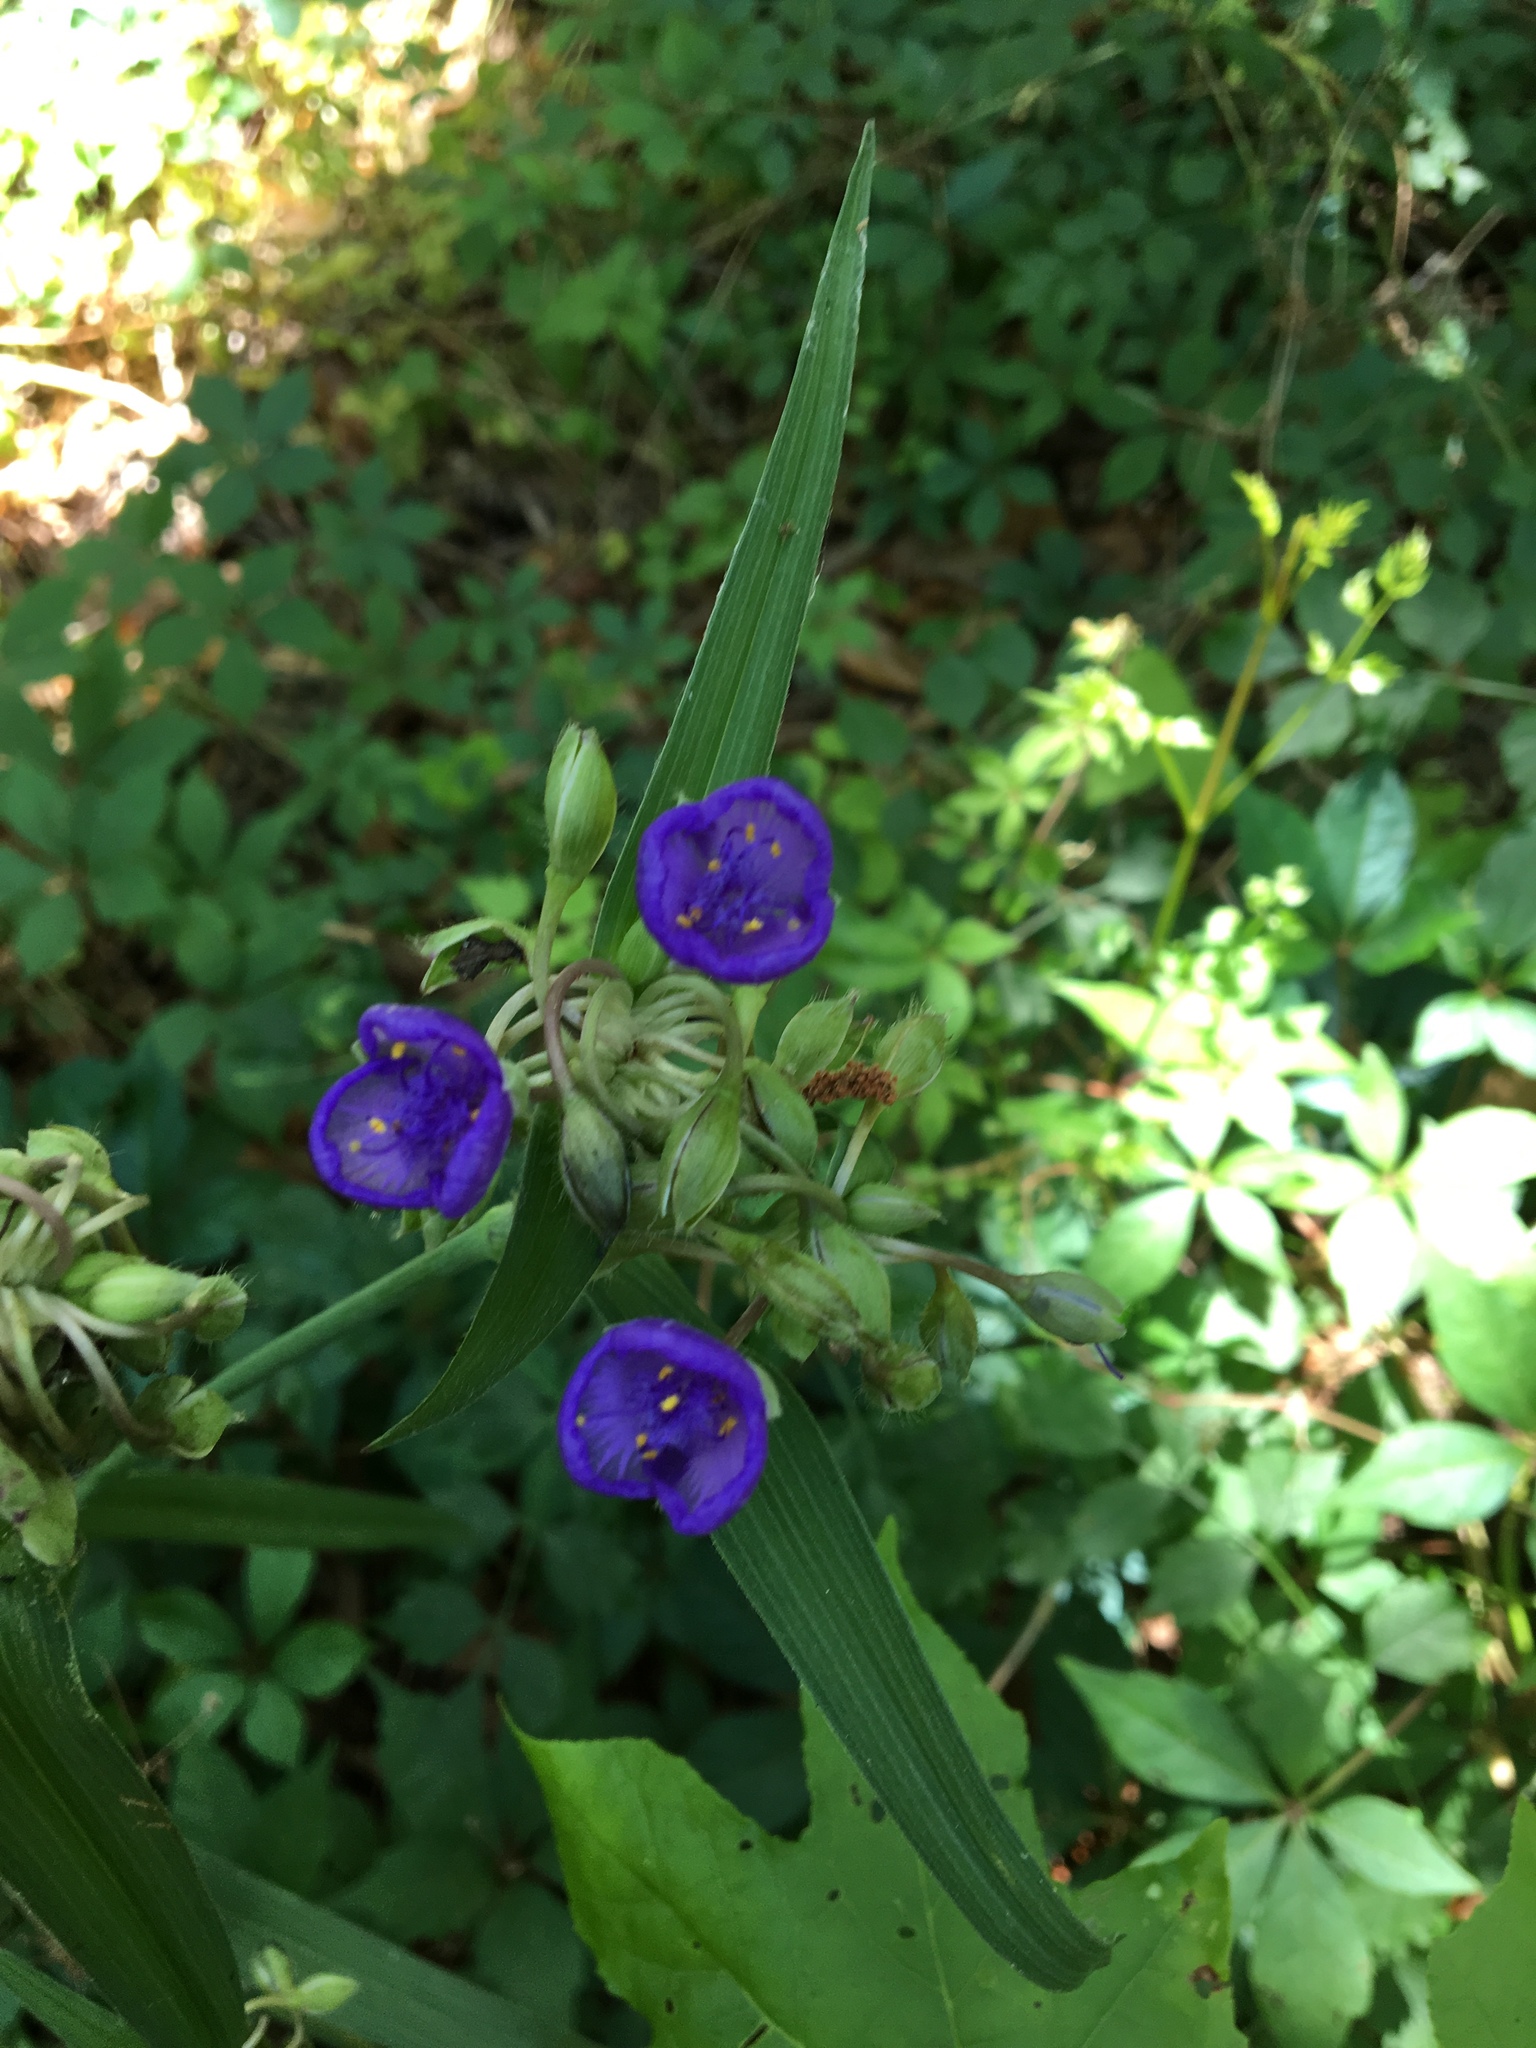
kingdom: Plantae
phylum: Tracheophyta
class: Liliopsida
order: Commelinales
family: Commelinaceae
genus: Tradescantia
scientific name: Tradescantia ohiensis
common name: Ohio spiderwort
